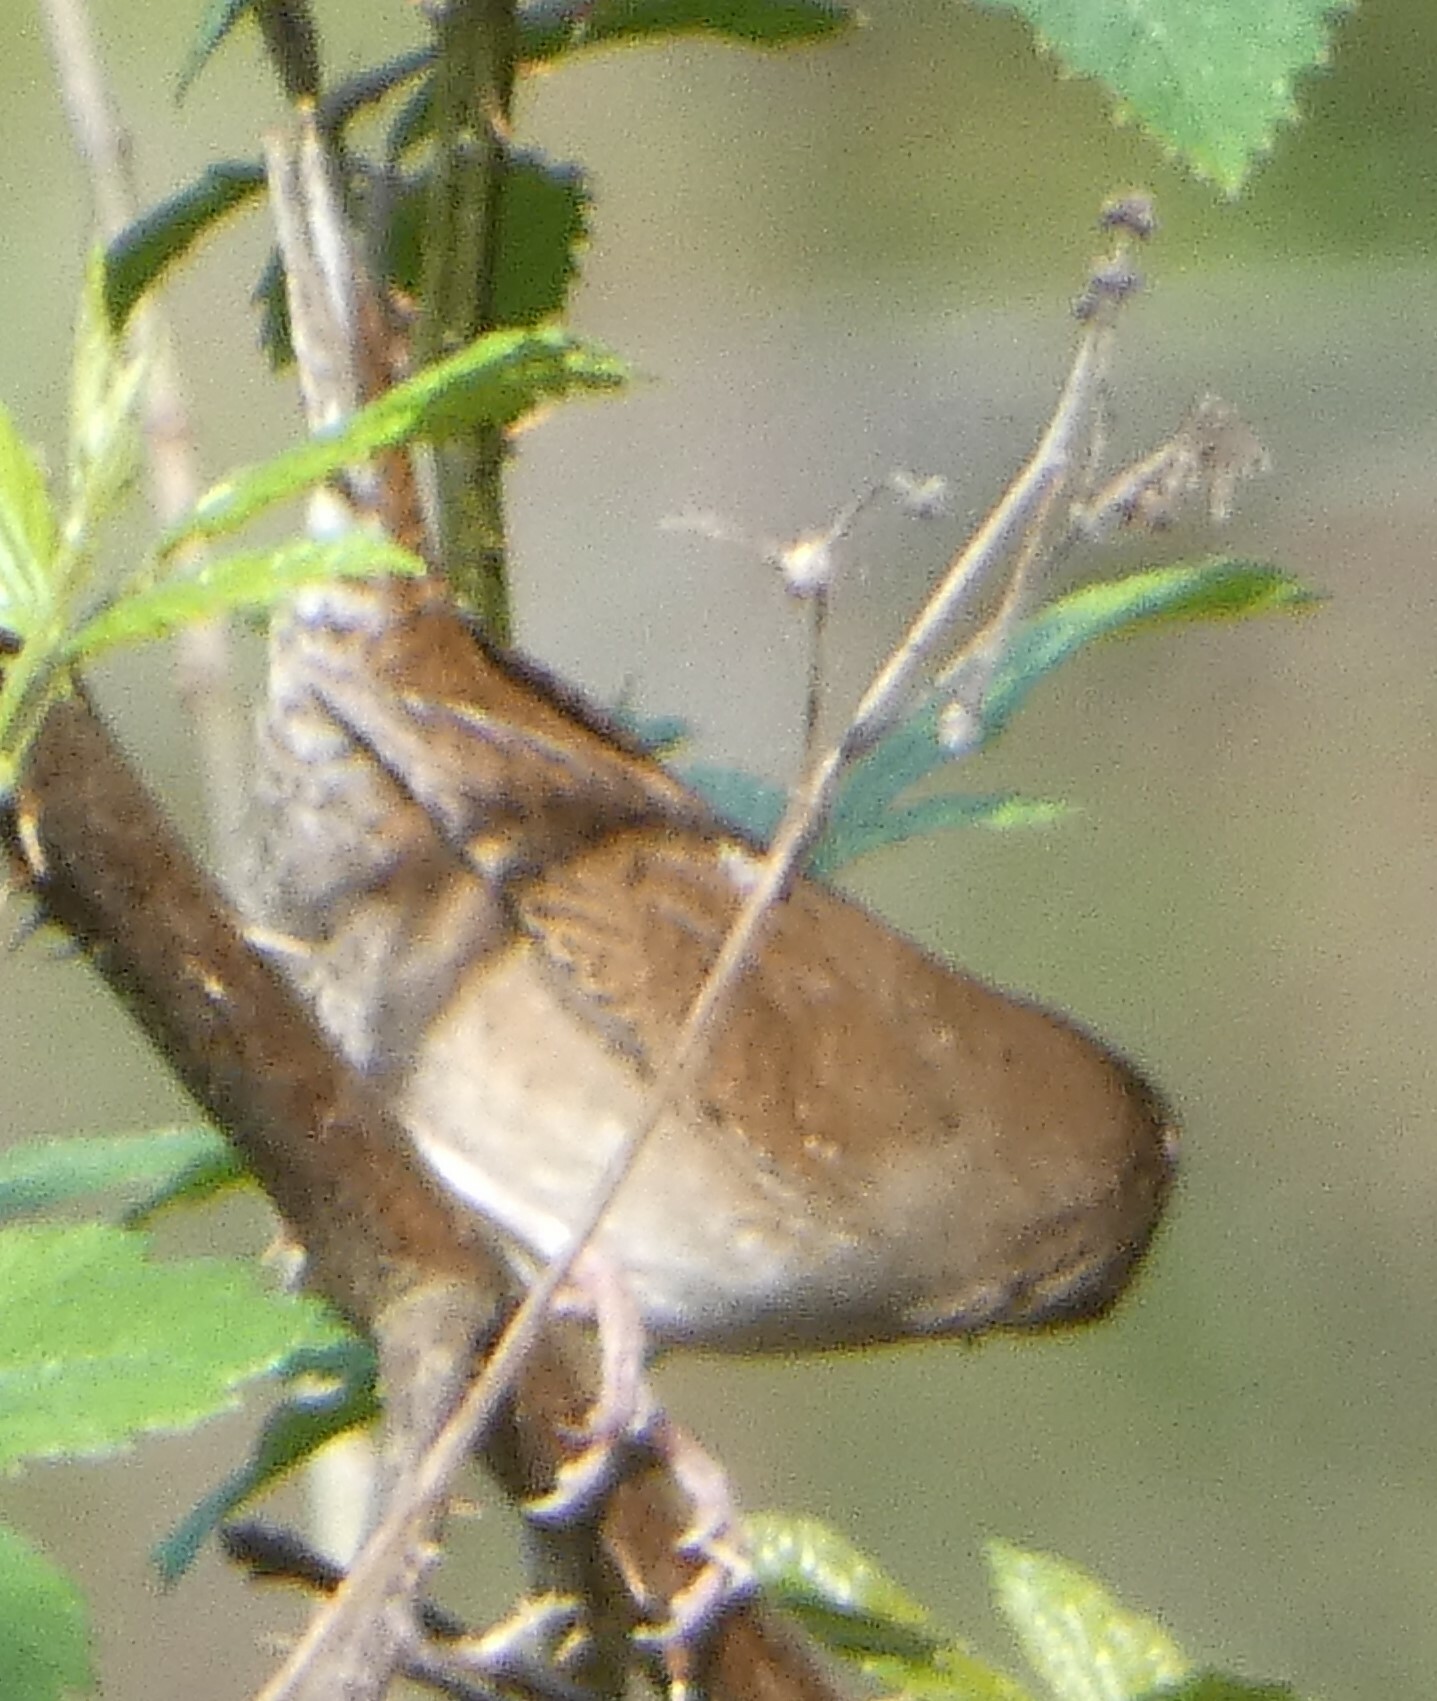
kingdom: Animalia
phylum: Chordata
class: Aves
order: Passeriformes
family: Troglodytidae
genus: Troglodytes
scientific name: Troglodytes aedon
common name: House wren
